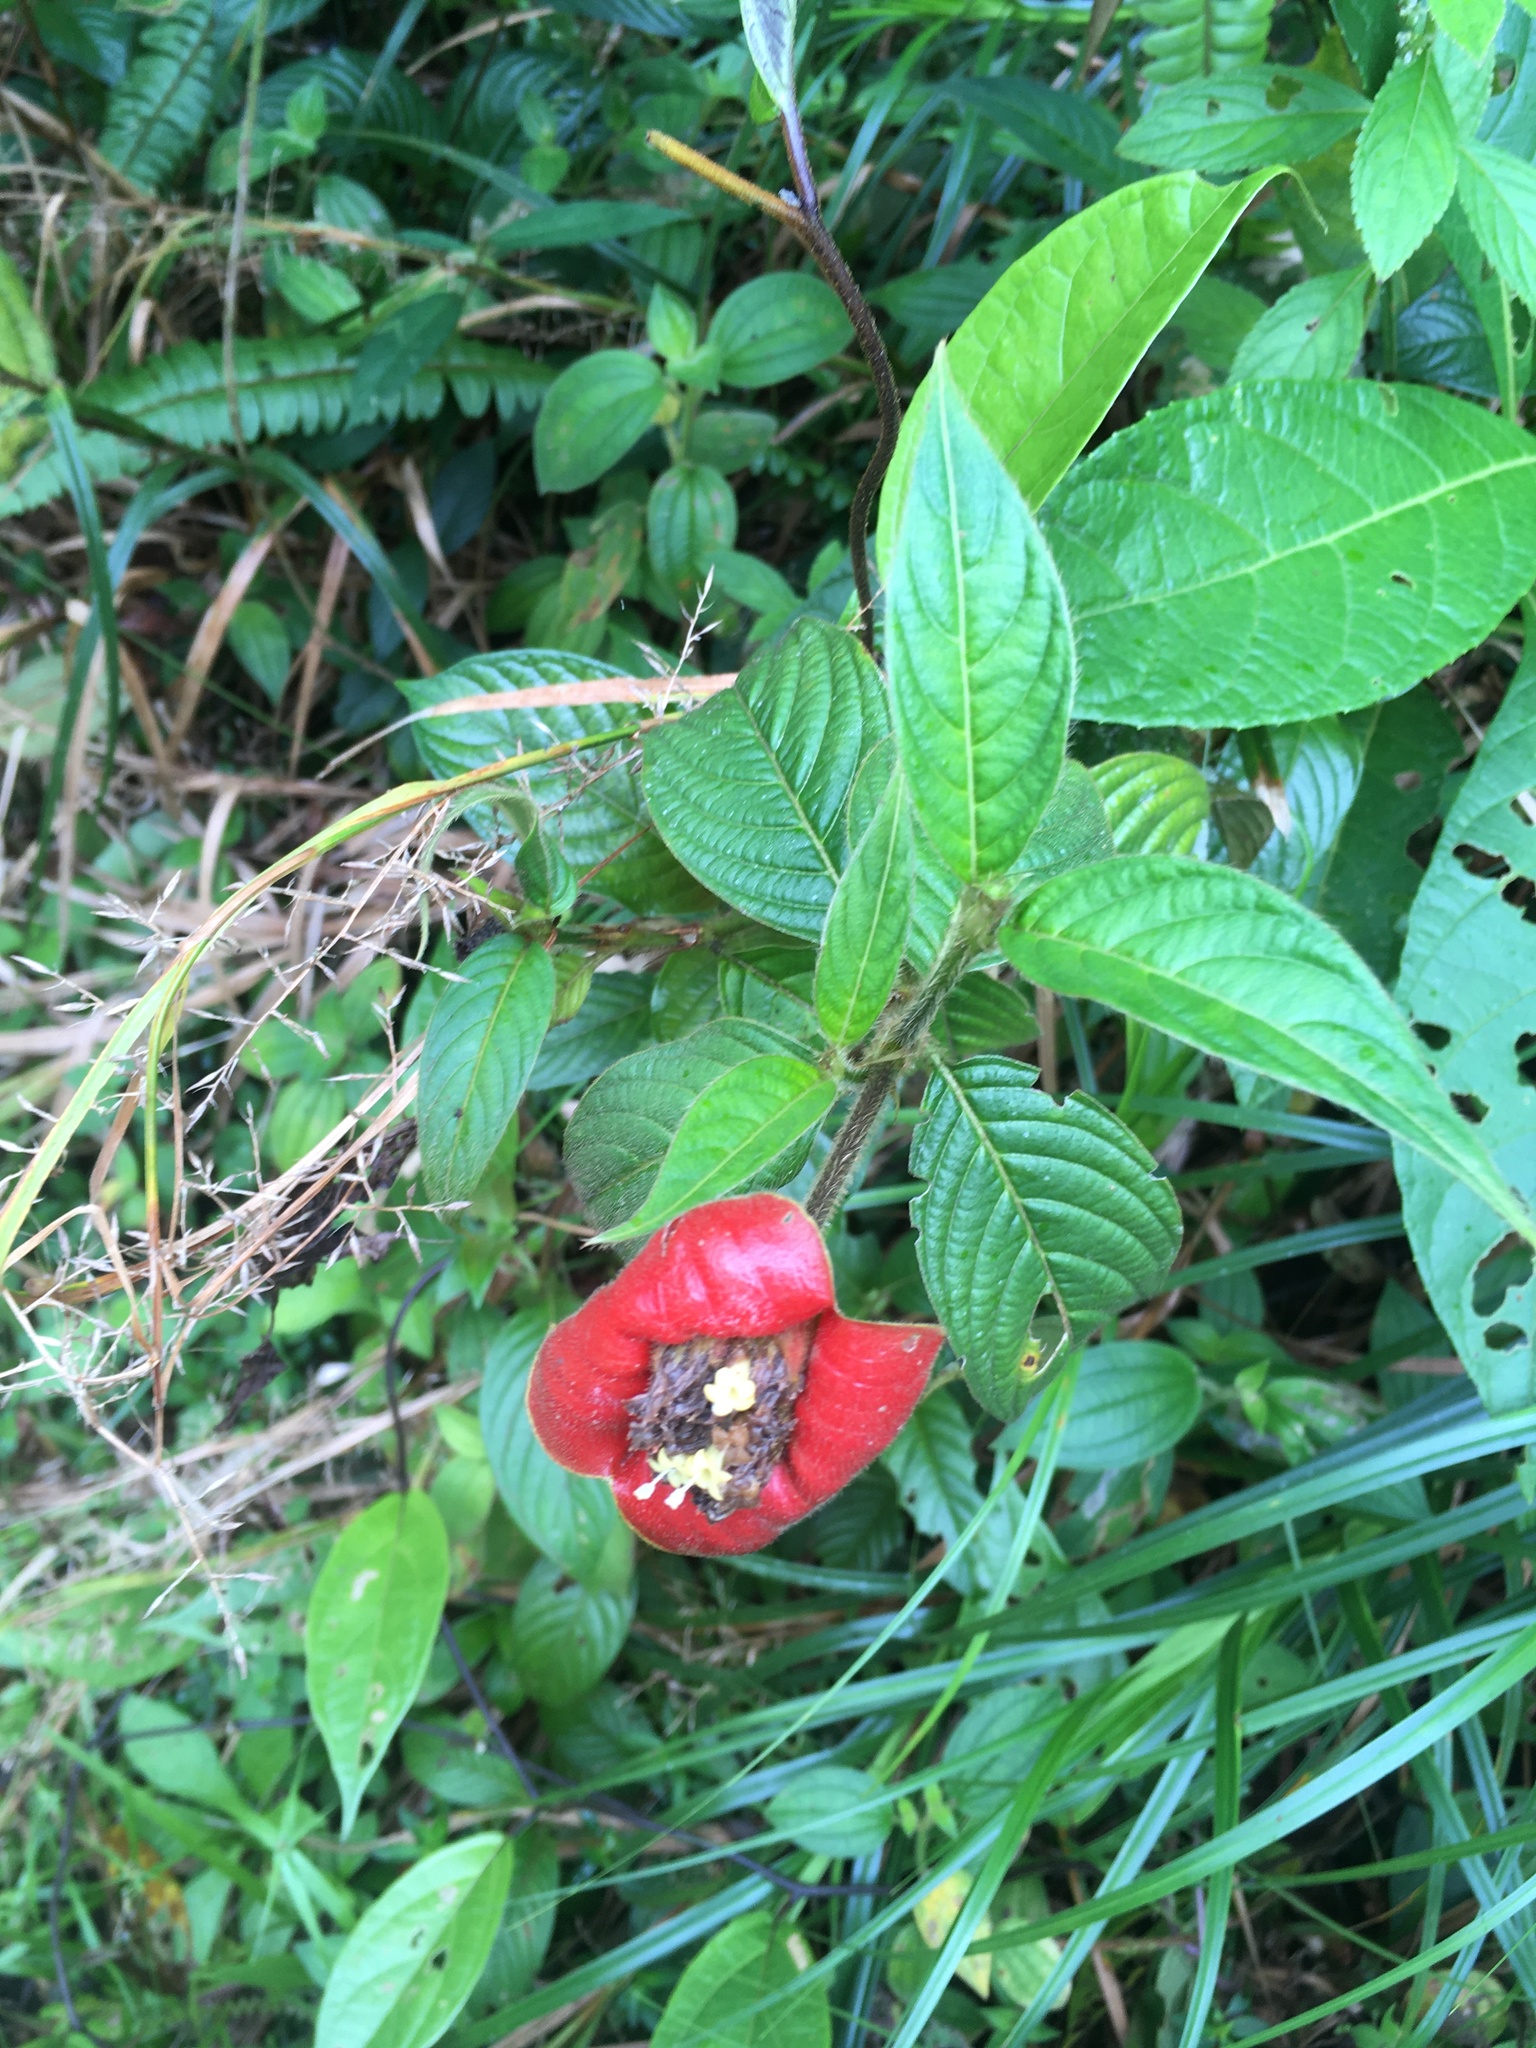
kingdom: Plantae
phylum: Tracheophyta
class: Magnoliopsida
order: Gentianales
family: Rubiaceae
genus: Palicourea
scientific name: Palicourea tomentosa
